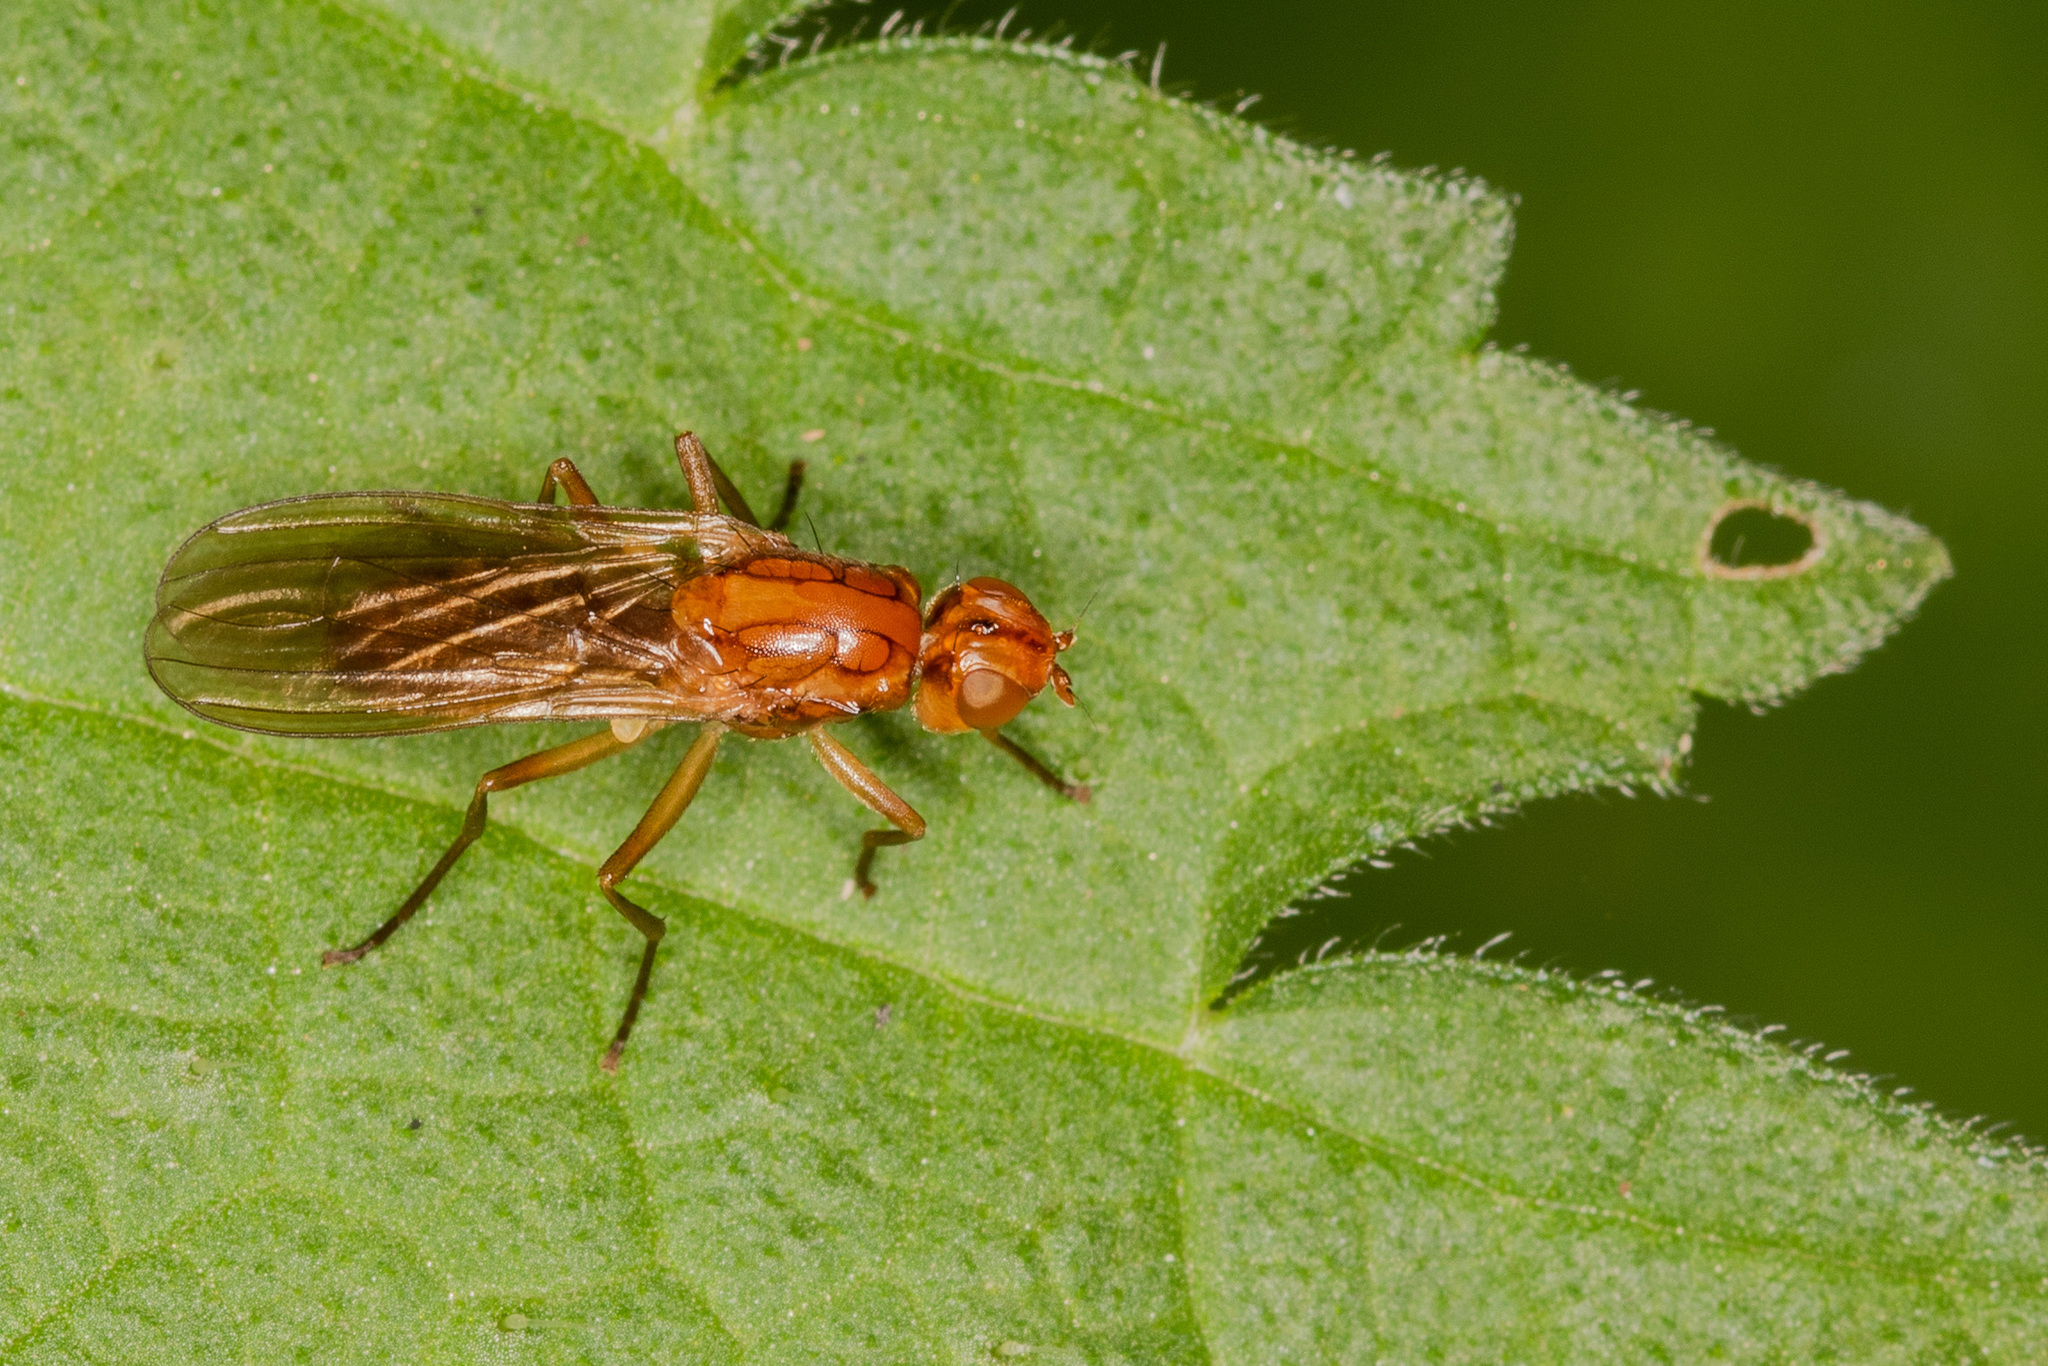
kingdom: Animalia
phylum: Arthropoda
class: Insecta
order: Diptera
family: Psilidae
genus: Psila
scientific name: Psila fimetaria
